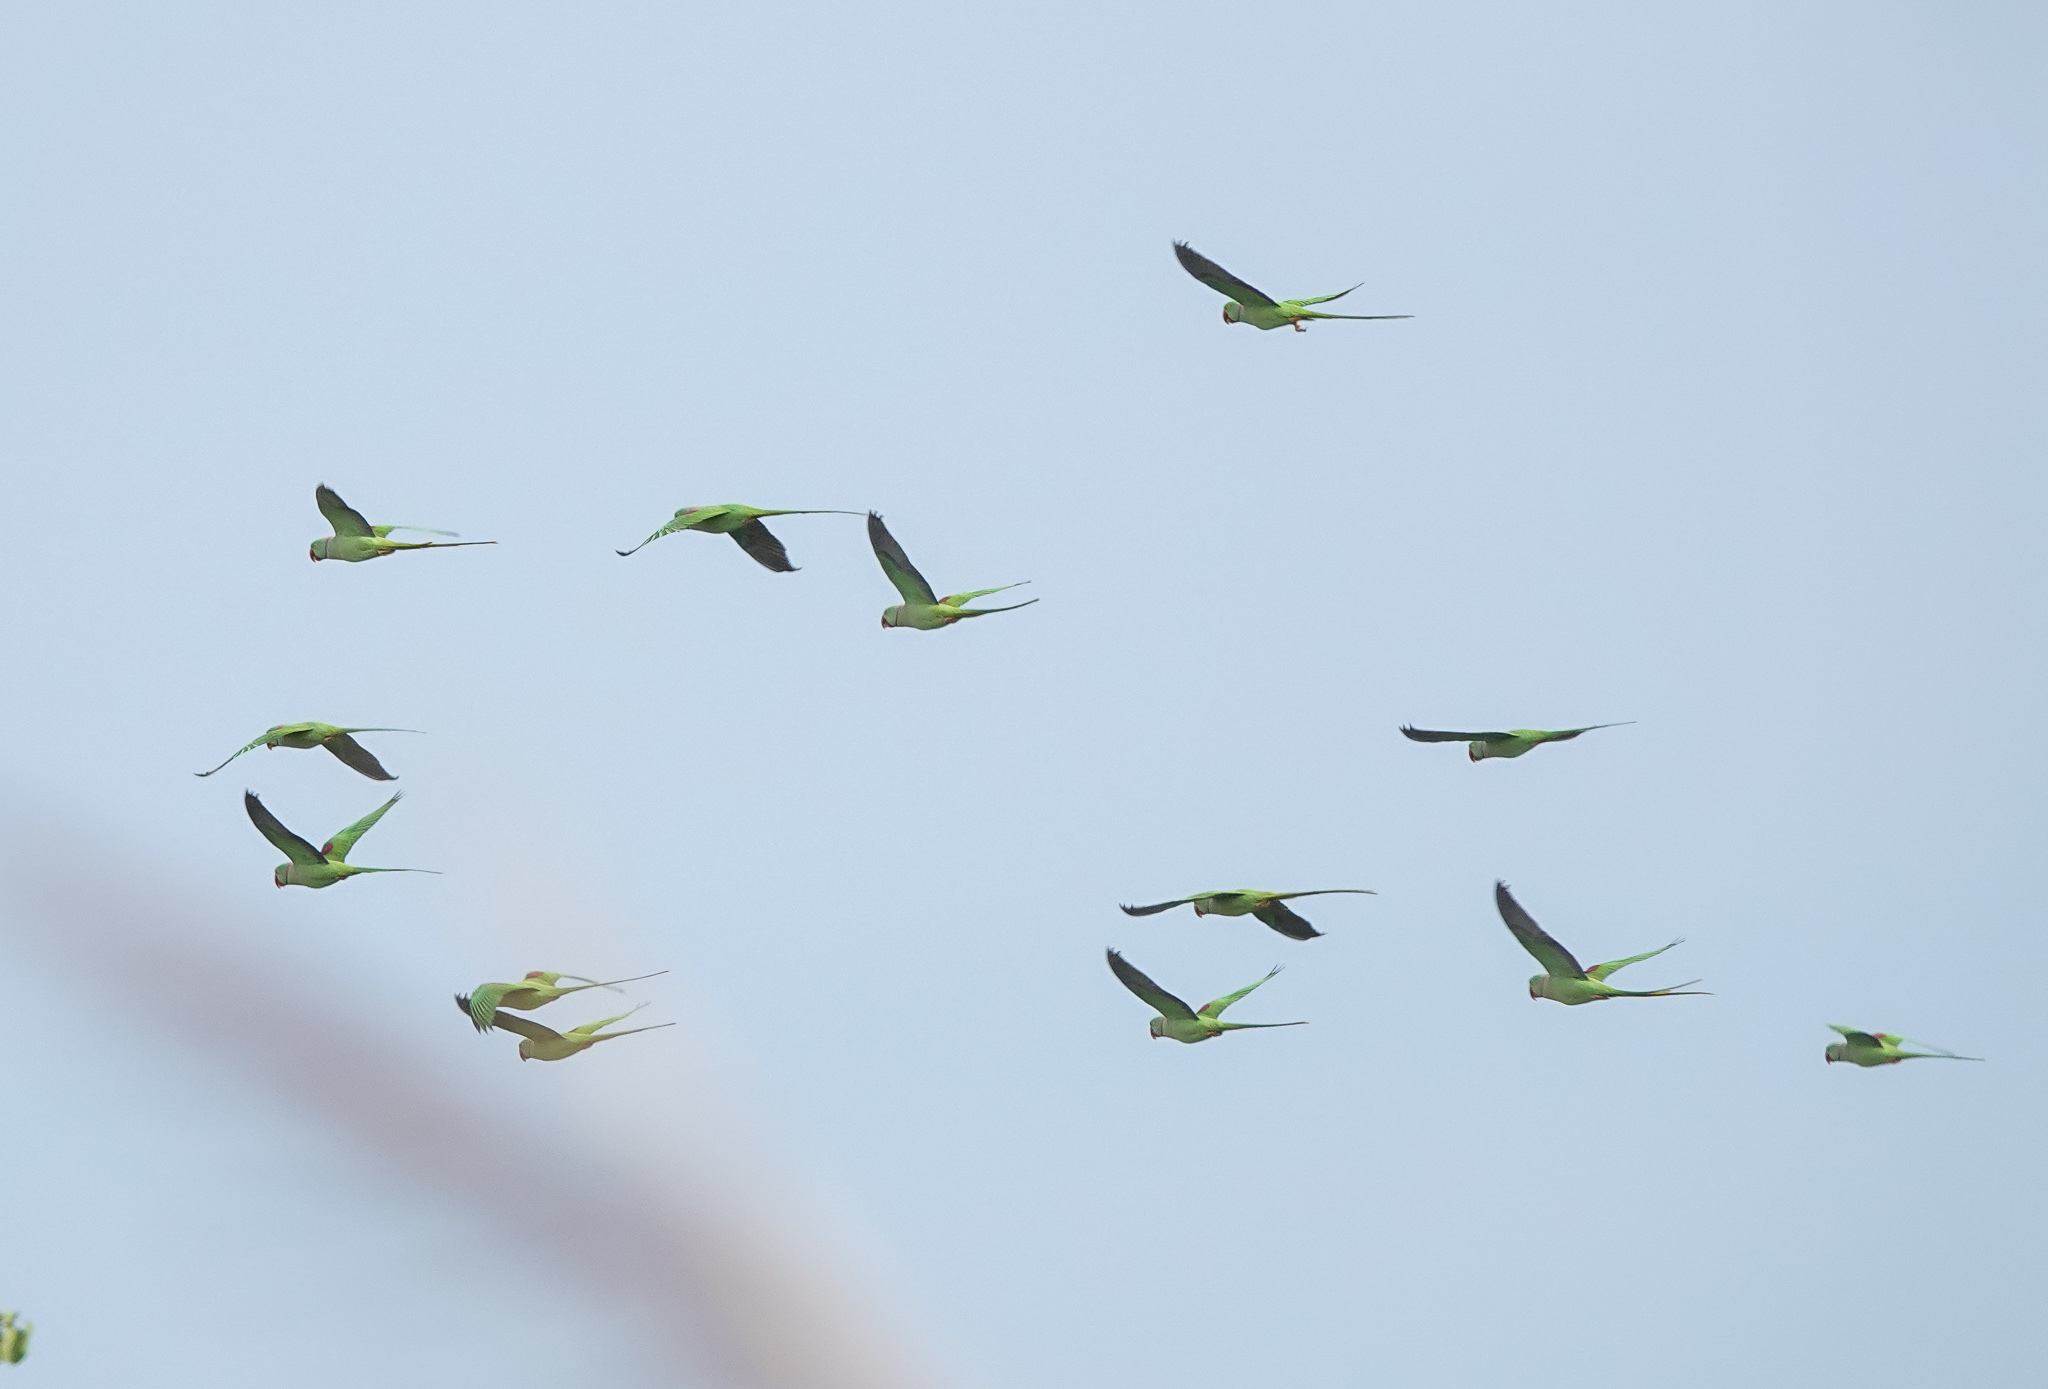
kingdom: Animalia
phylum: Chordata
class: Aves
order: Psittaciformes
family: Psittacidae
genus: Psittacula
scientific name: Psittacula eupatria
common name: Alexandrine parakeet
